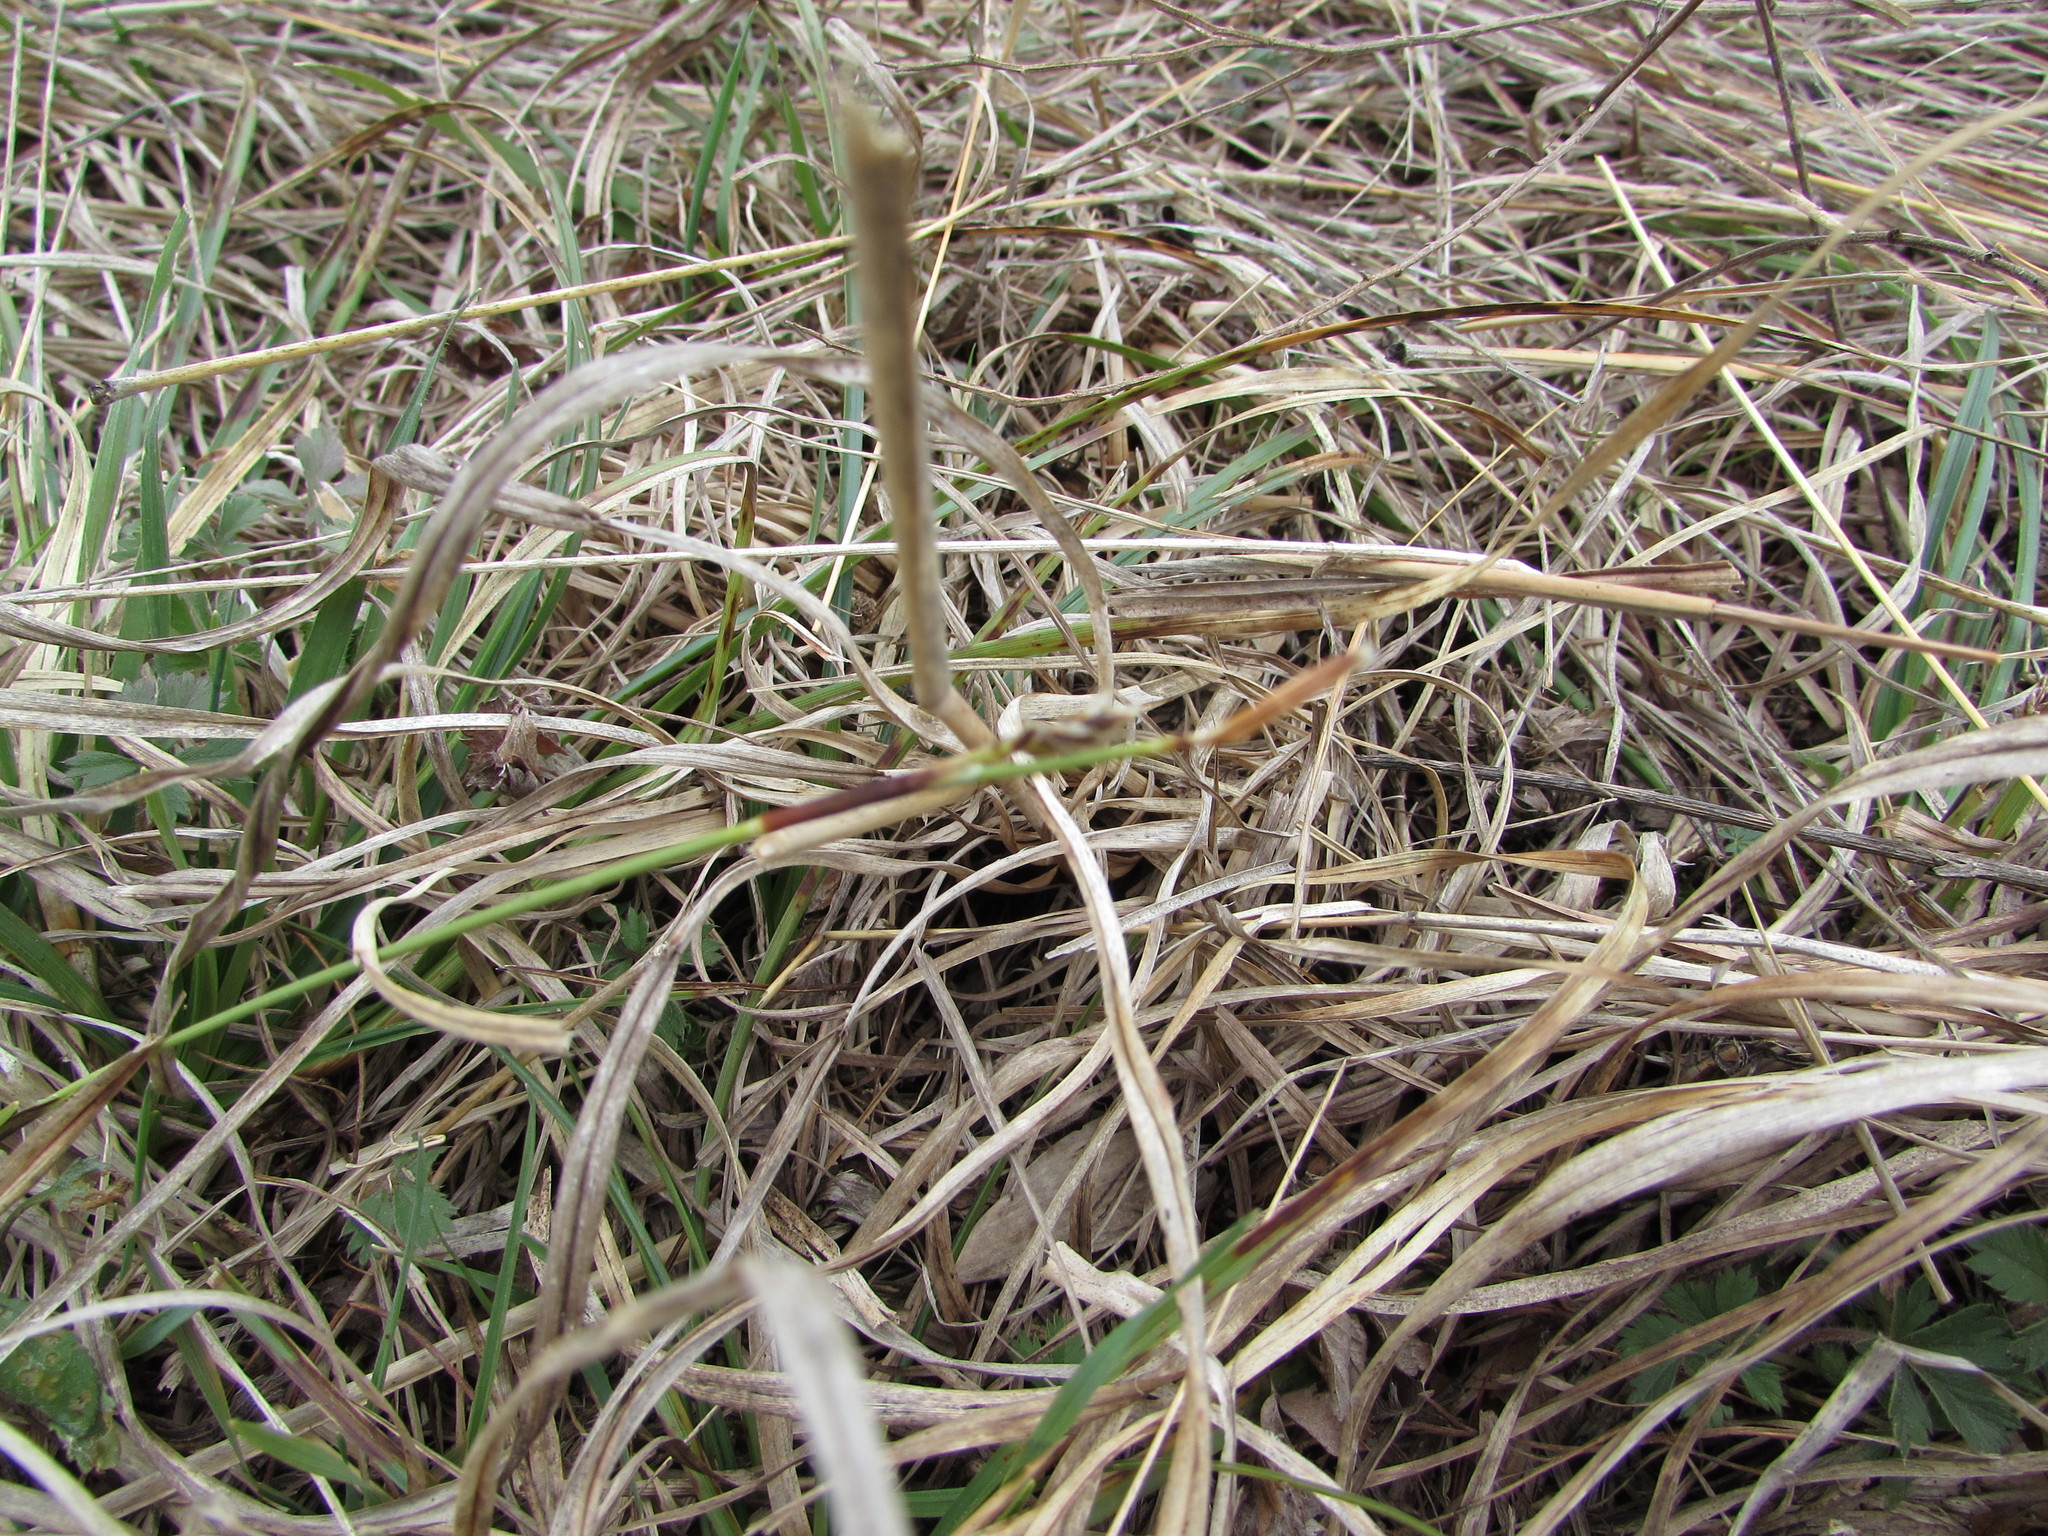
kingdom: Plantae
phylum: Tracheophyta
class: Liliopsida
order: Poales
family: Cyperaceae
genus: Carex
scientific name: Carex richardsonii
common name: Prairie hummock sedge
